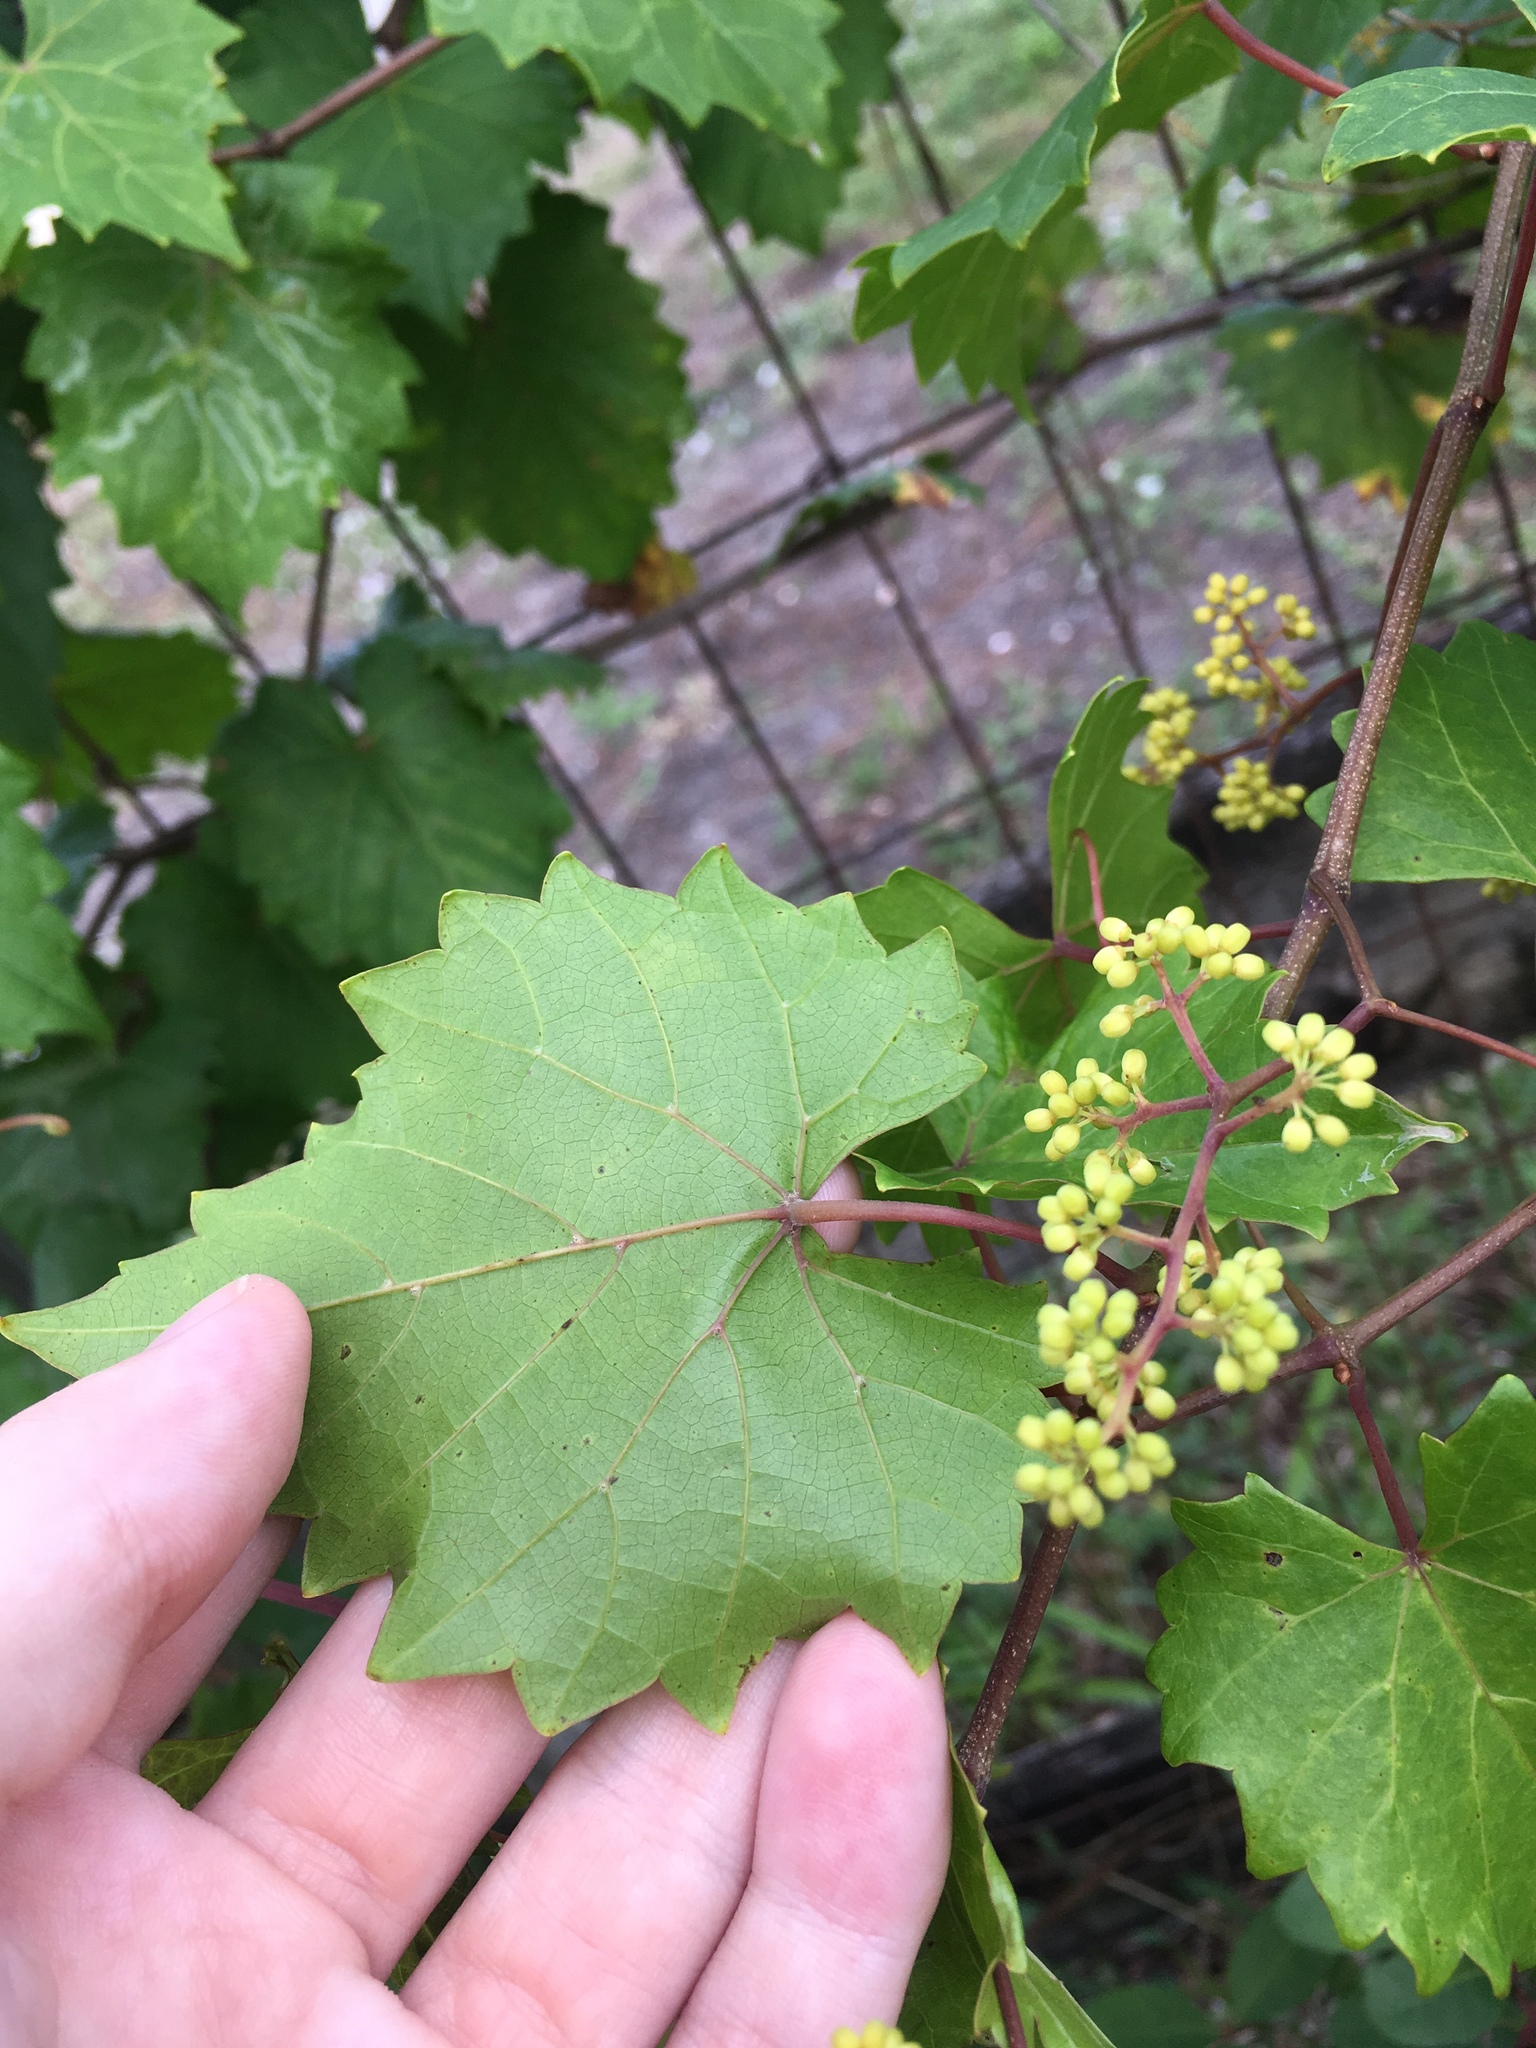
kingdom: Plantae
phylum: Tracheophyta
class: Magnoliopsida
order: Vitales
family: Vitaceae
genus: Vitis
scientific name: Vitis rotundifolia
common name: Muscadine grape
